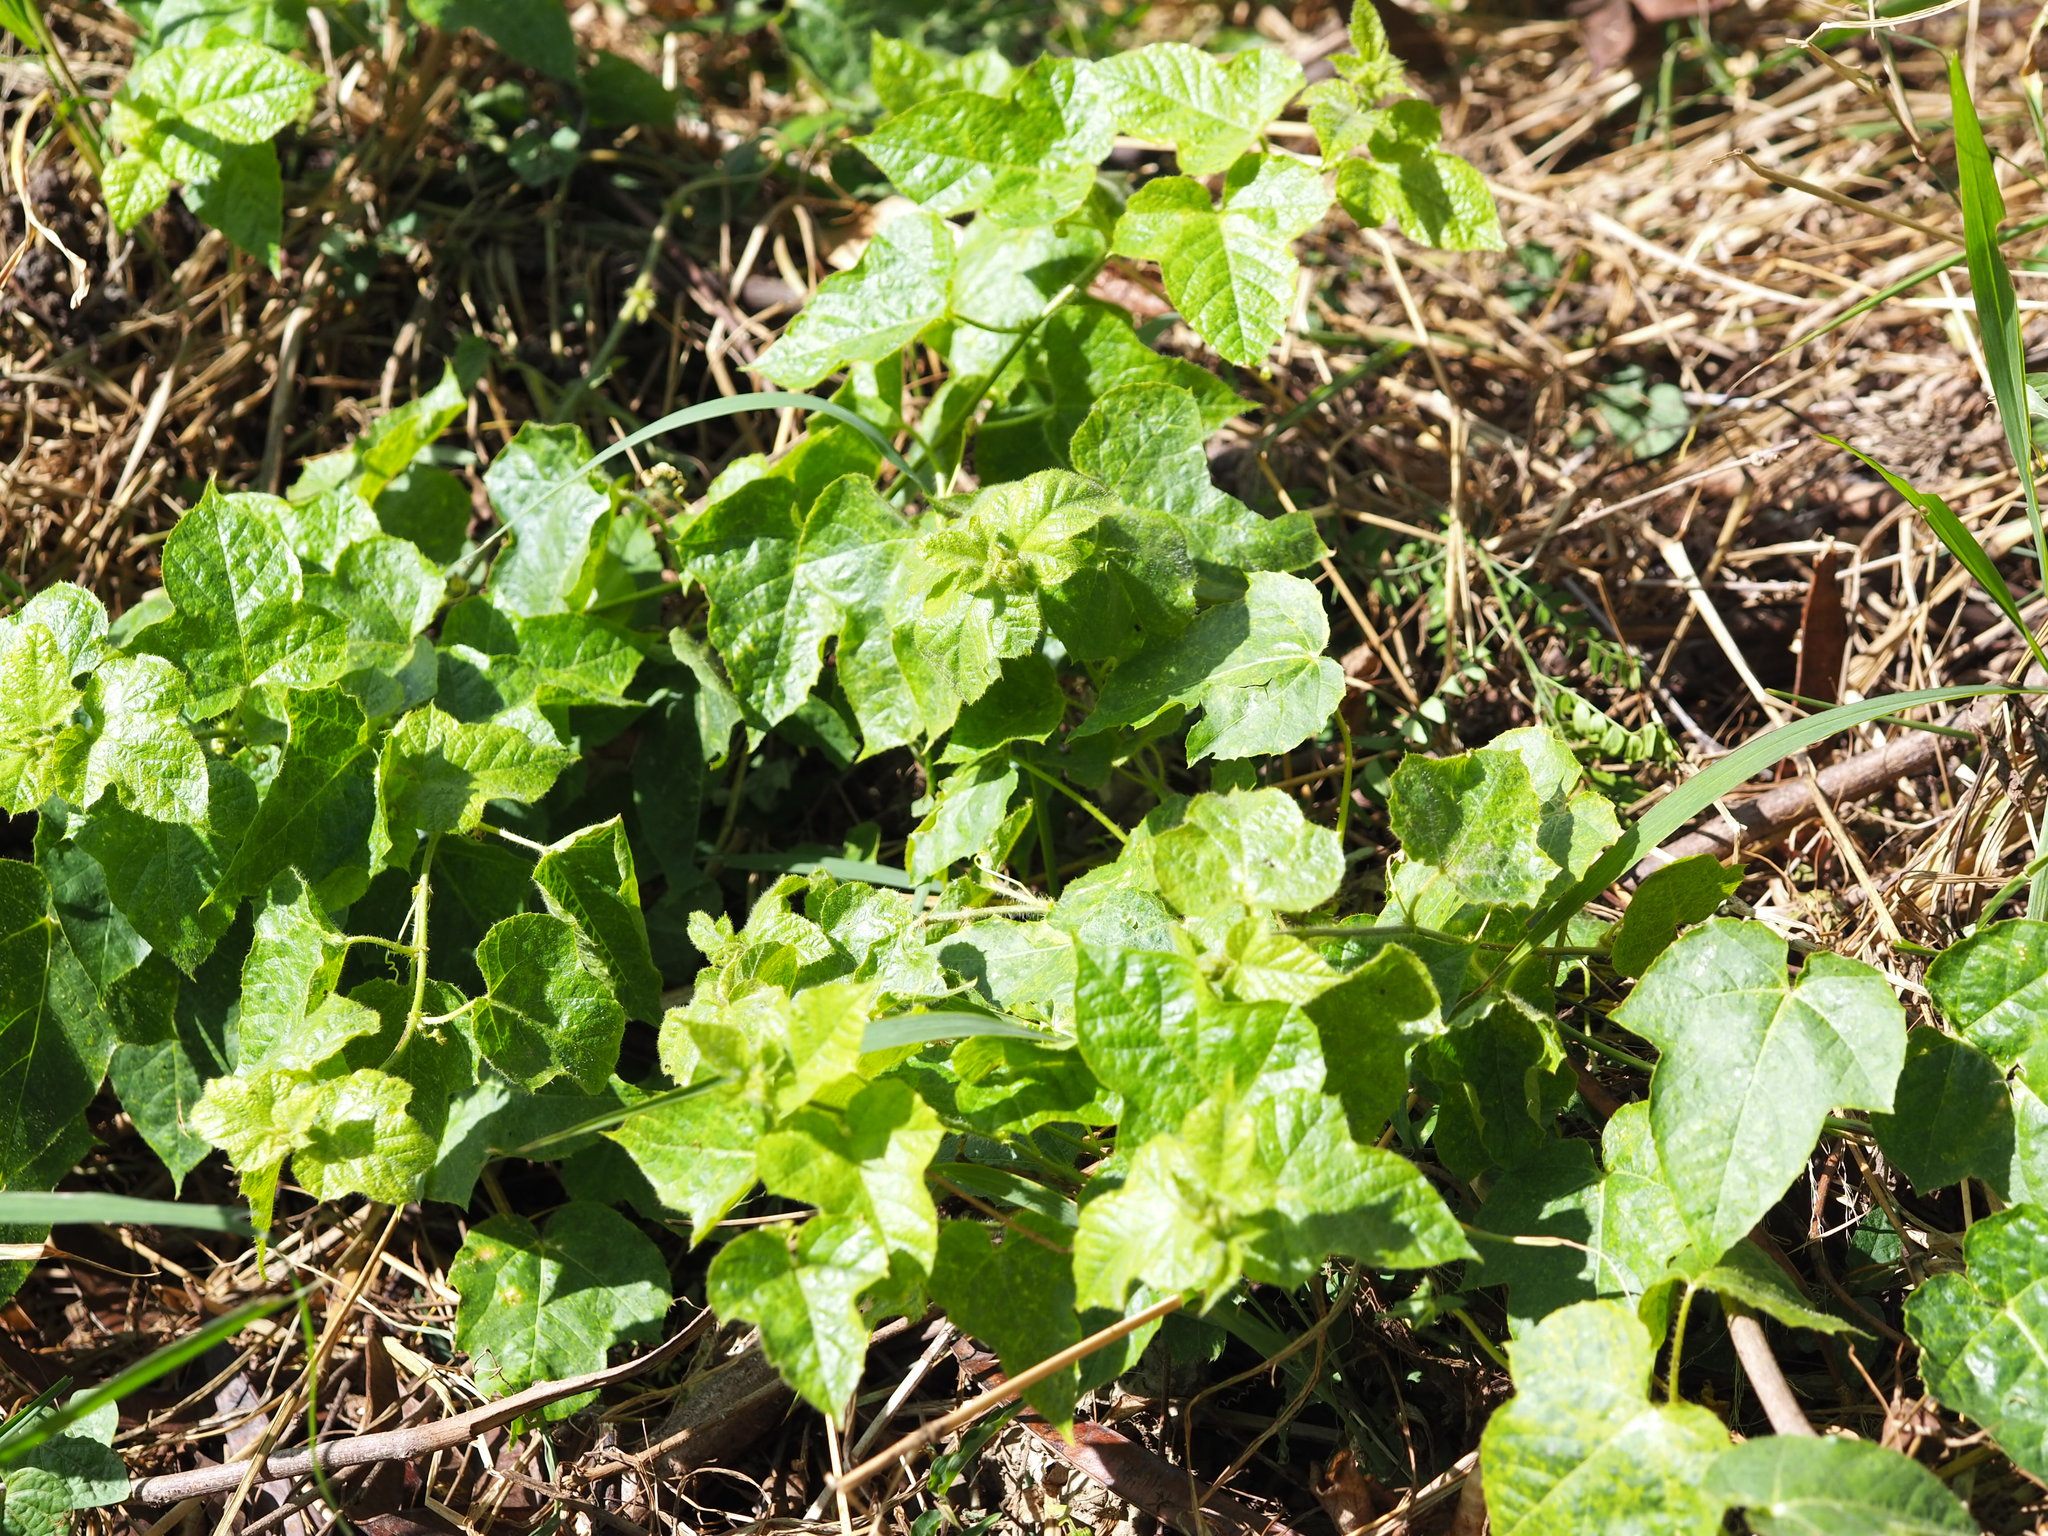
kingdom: Plantae
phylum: Tracheophyta
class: Magnoliopsida
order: Malpighiales
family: Passifloraceae
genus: Passiflora
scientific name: Passiflora vesicaria
